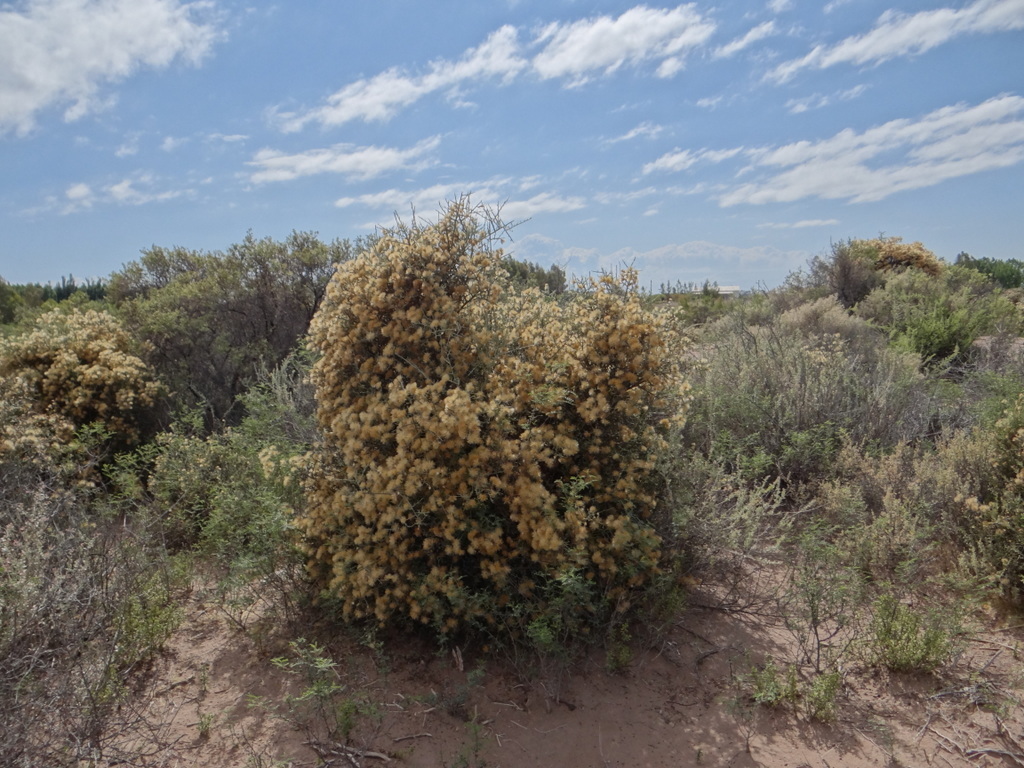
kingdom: Plantae
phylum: Tracheophyta
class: Magnoliopsida
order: Asterales
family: Asteraceae
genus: Cyclolepis
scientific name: Cyclolepis genistoides
